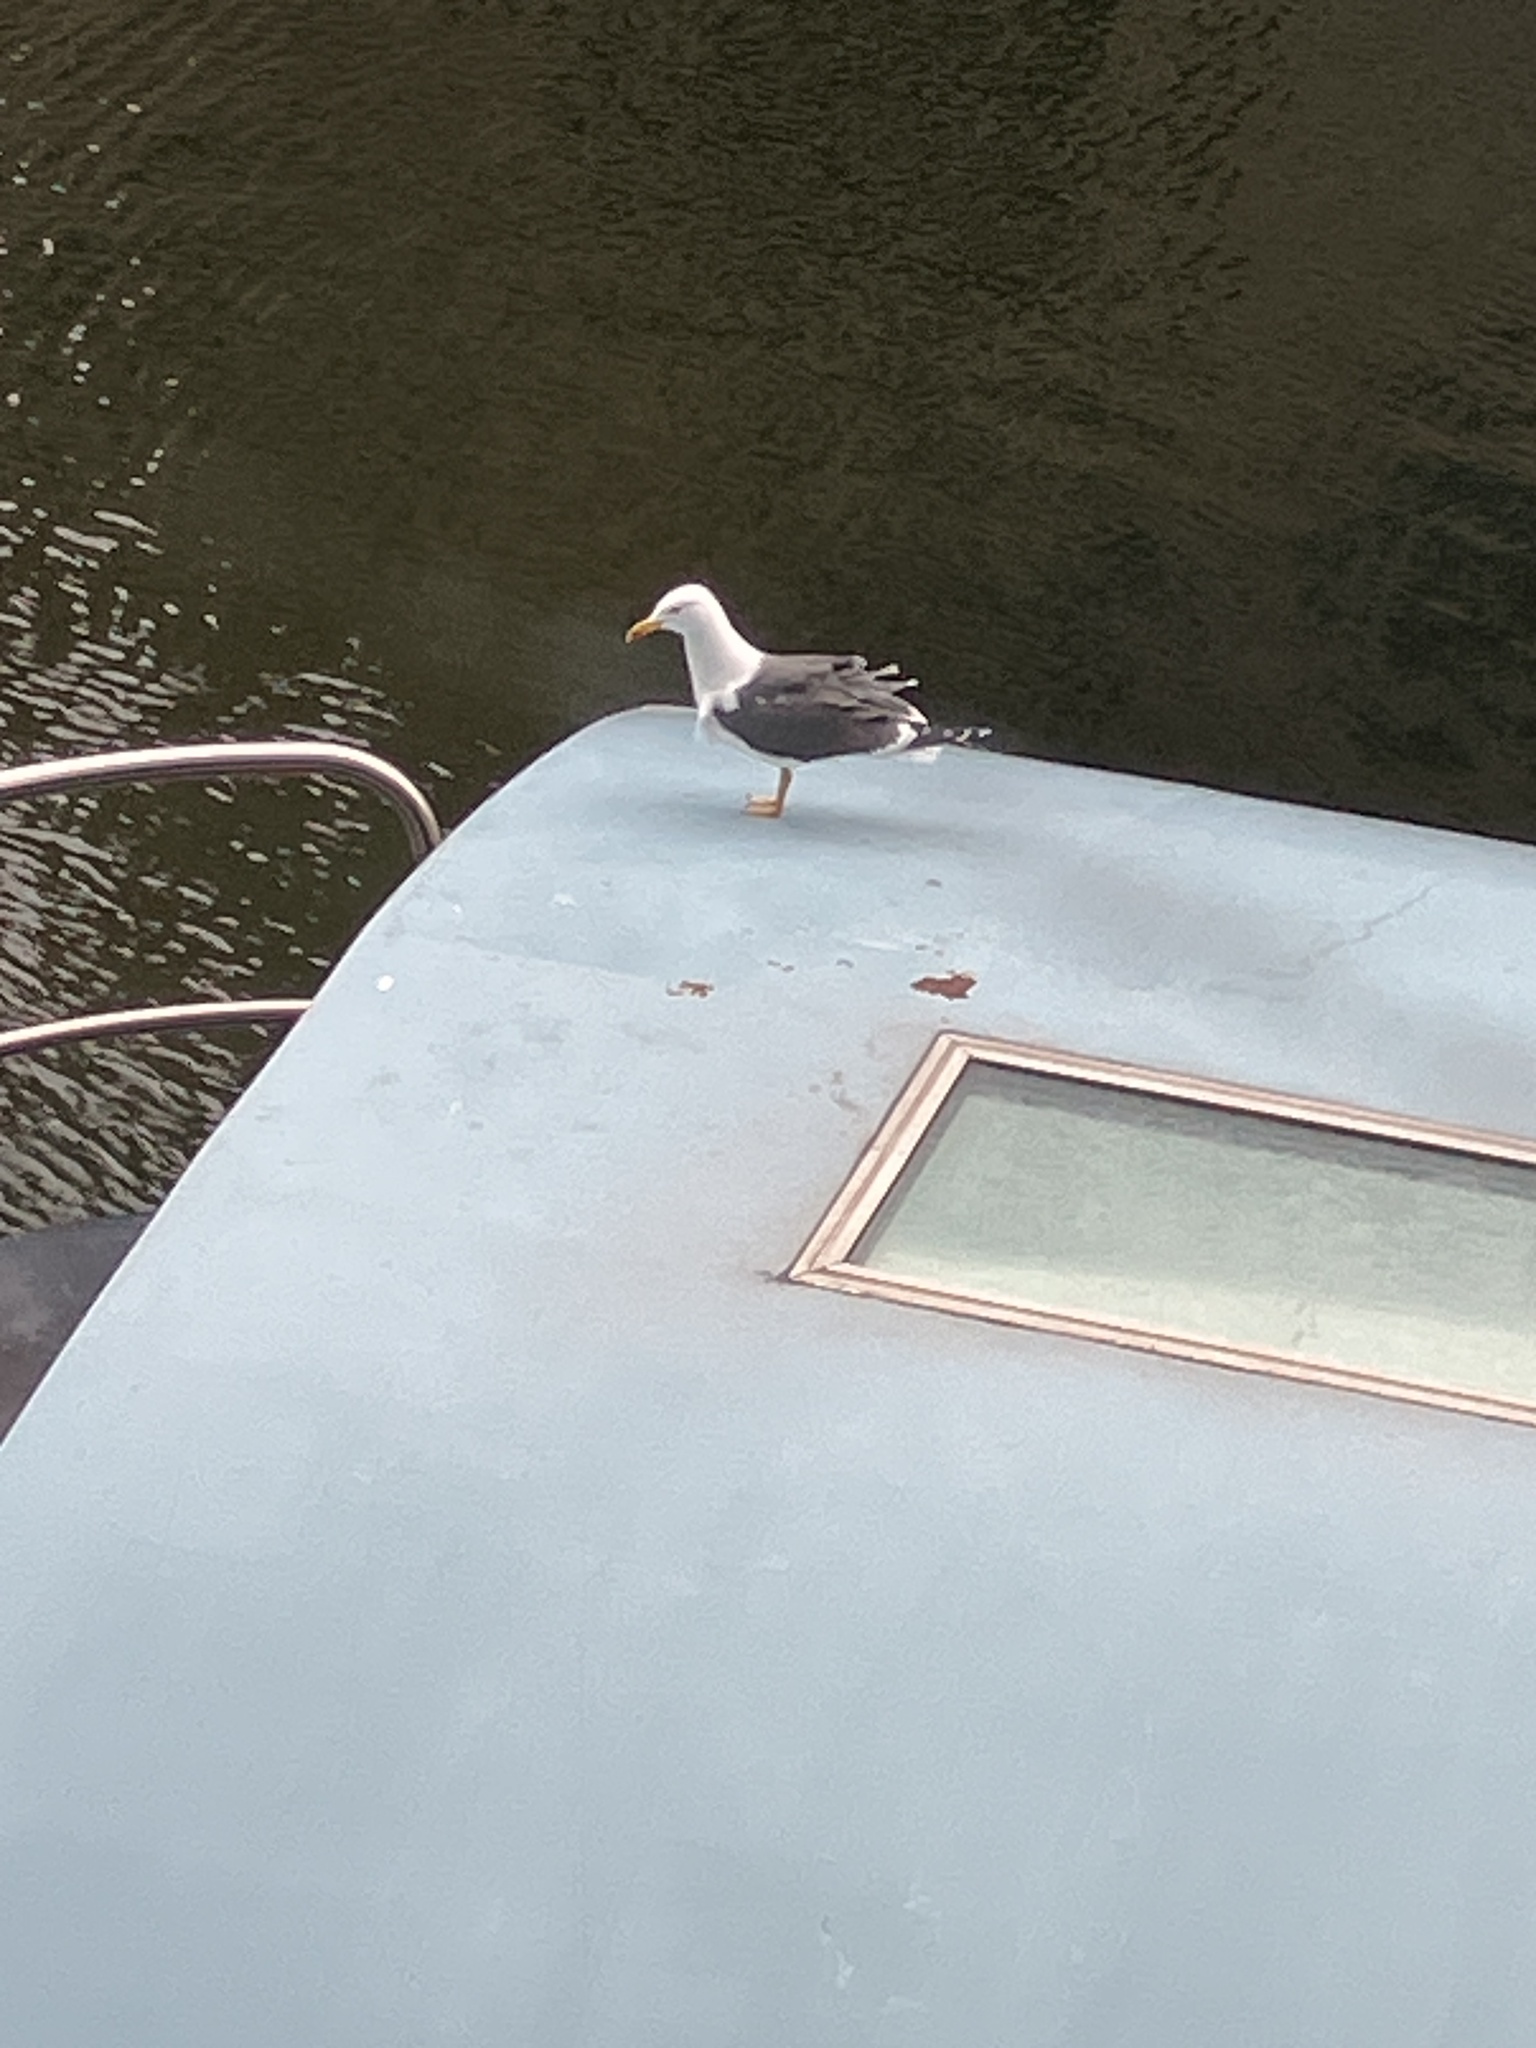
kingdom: Animalia
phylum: Chordata
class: Aves
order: Charadriiformes
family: Laridae
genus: Larus
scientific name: Larus fuscus
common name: Lesser black-backed gull
